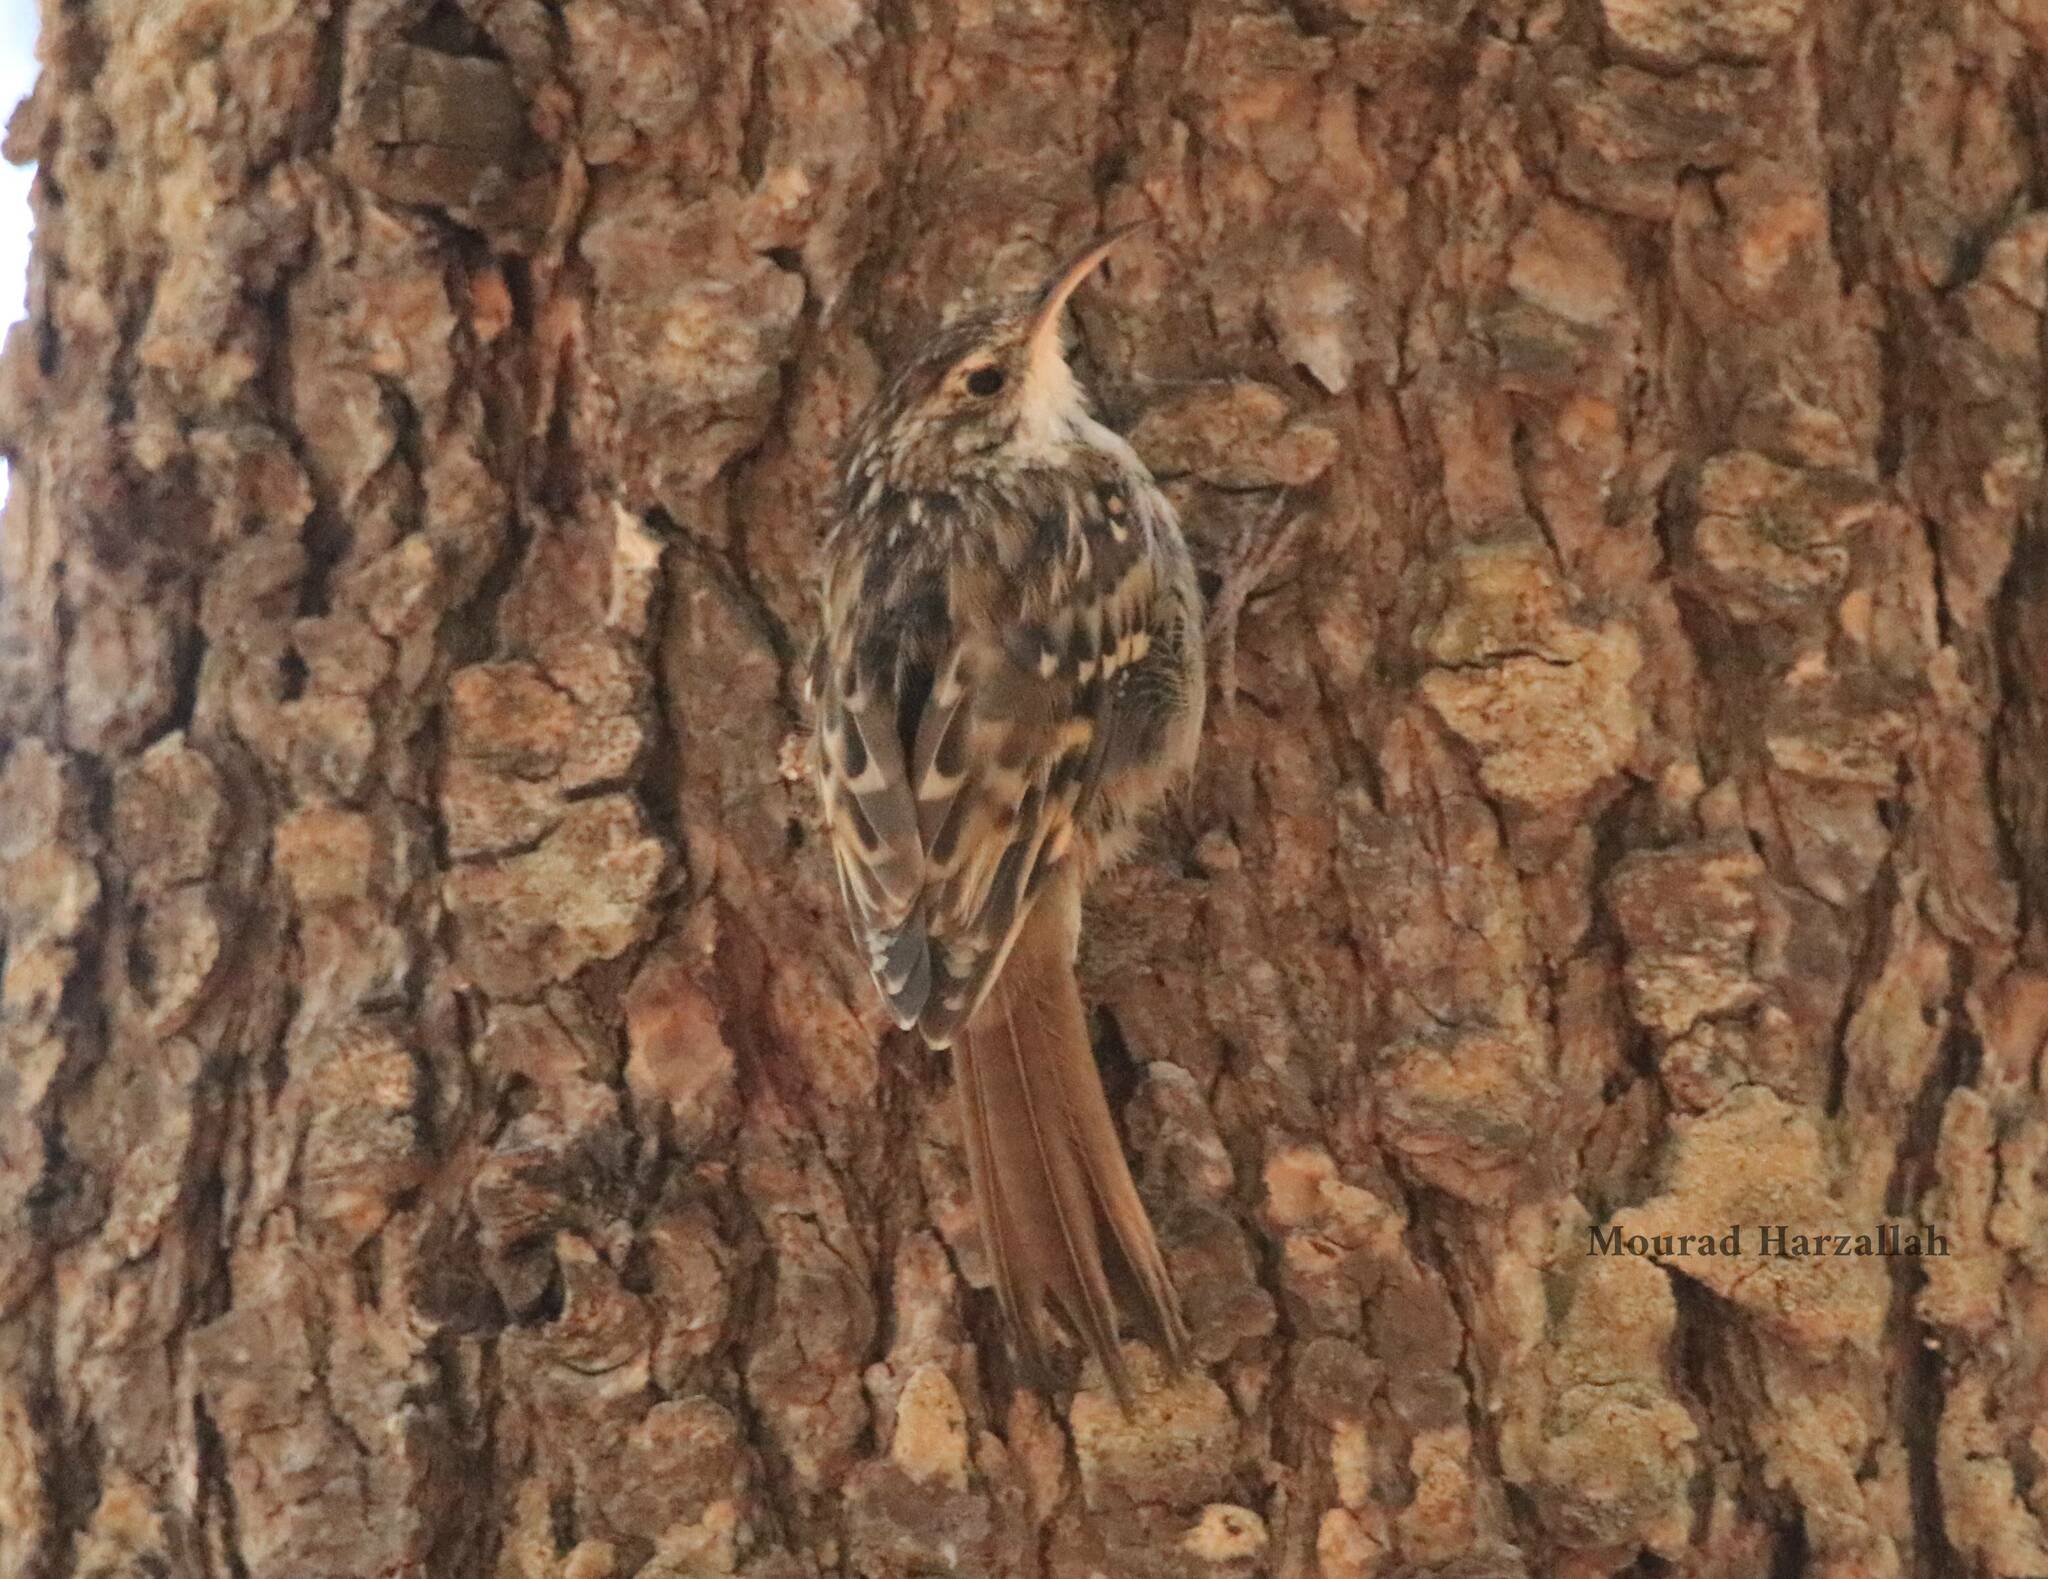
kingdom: Animalia
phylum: Chordata
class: Aves
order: Passeriformes
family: Certhiidae
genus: Certhia
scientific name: Certhia brachydactyla
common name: Short-toed treecreeper
